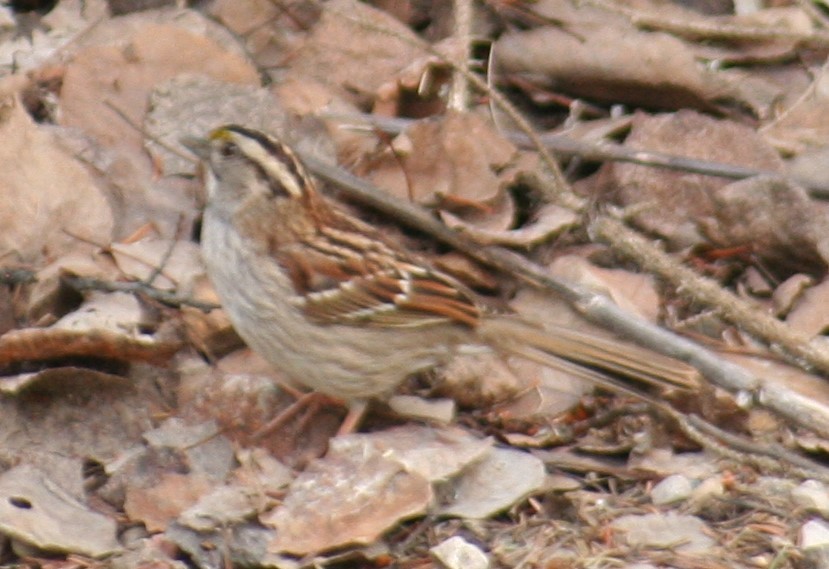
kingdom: Animalia
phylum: Chordata
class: Aves
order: Passeriformes
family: Passerellidae
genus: Zonotrichia
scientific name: Zonotrichia albicollis
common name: White-throated sparrow
